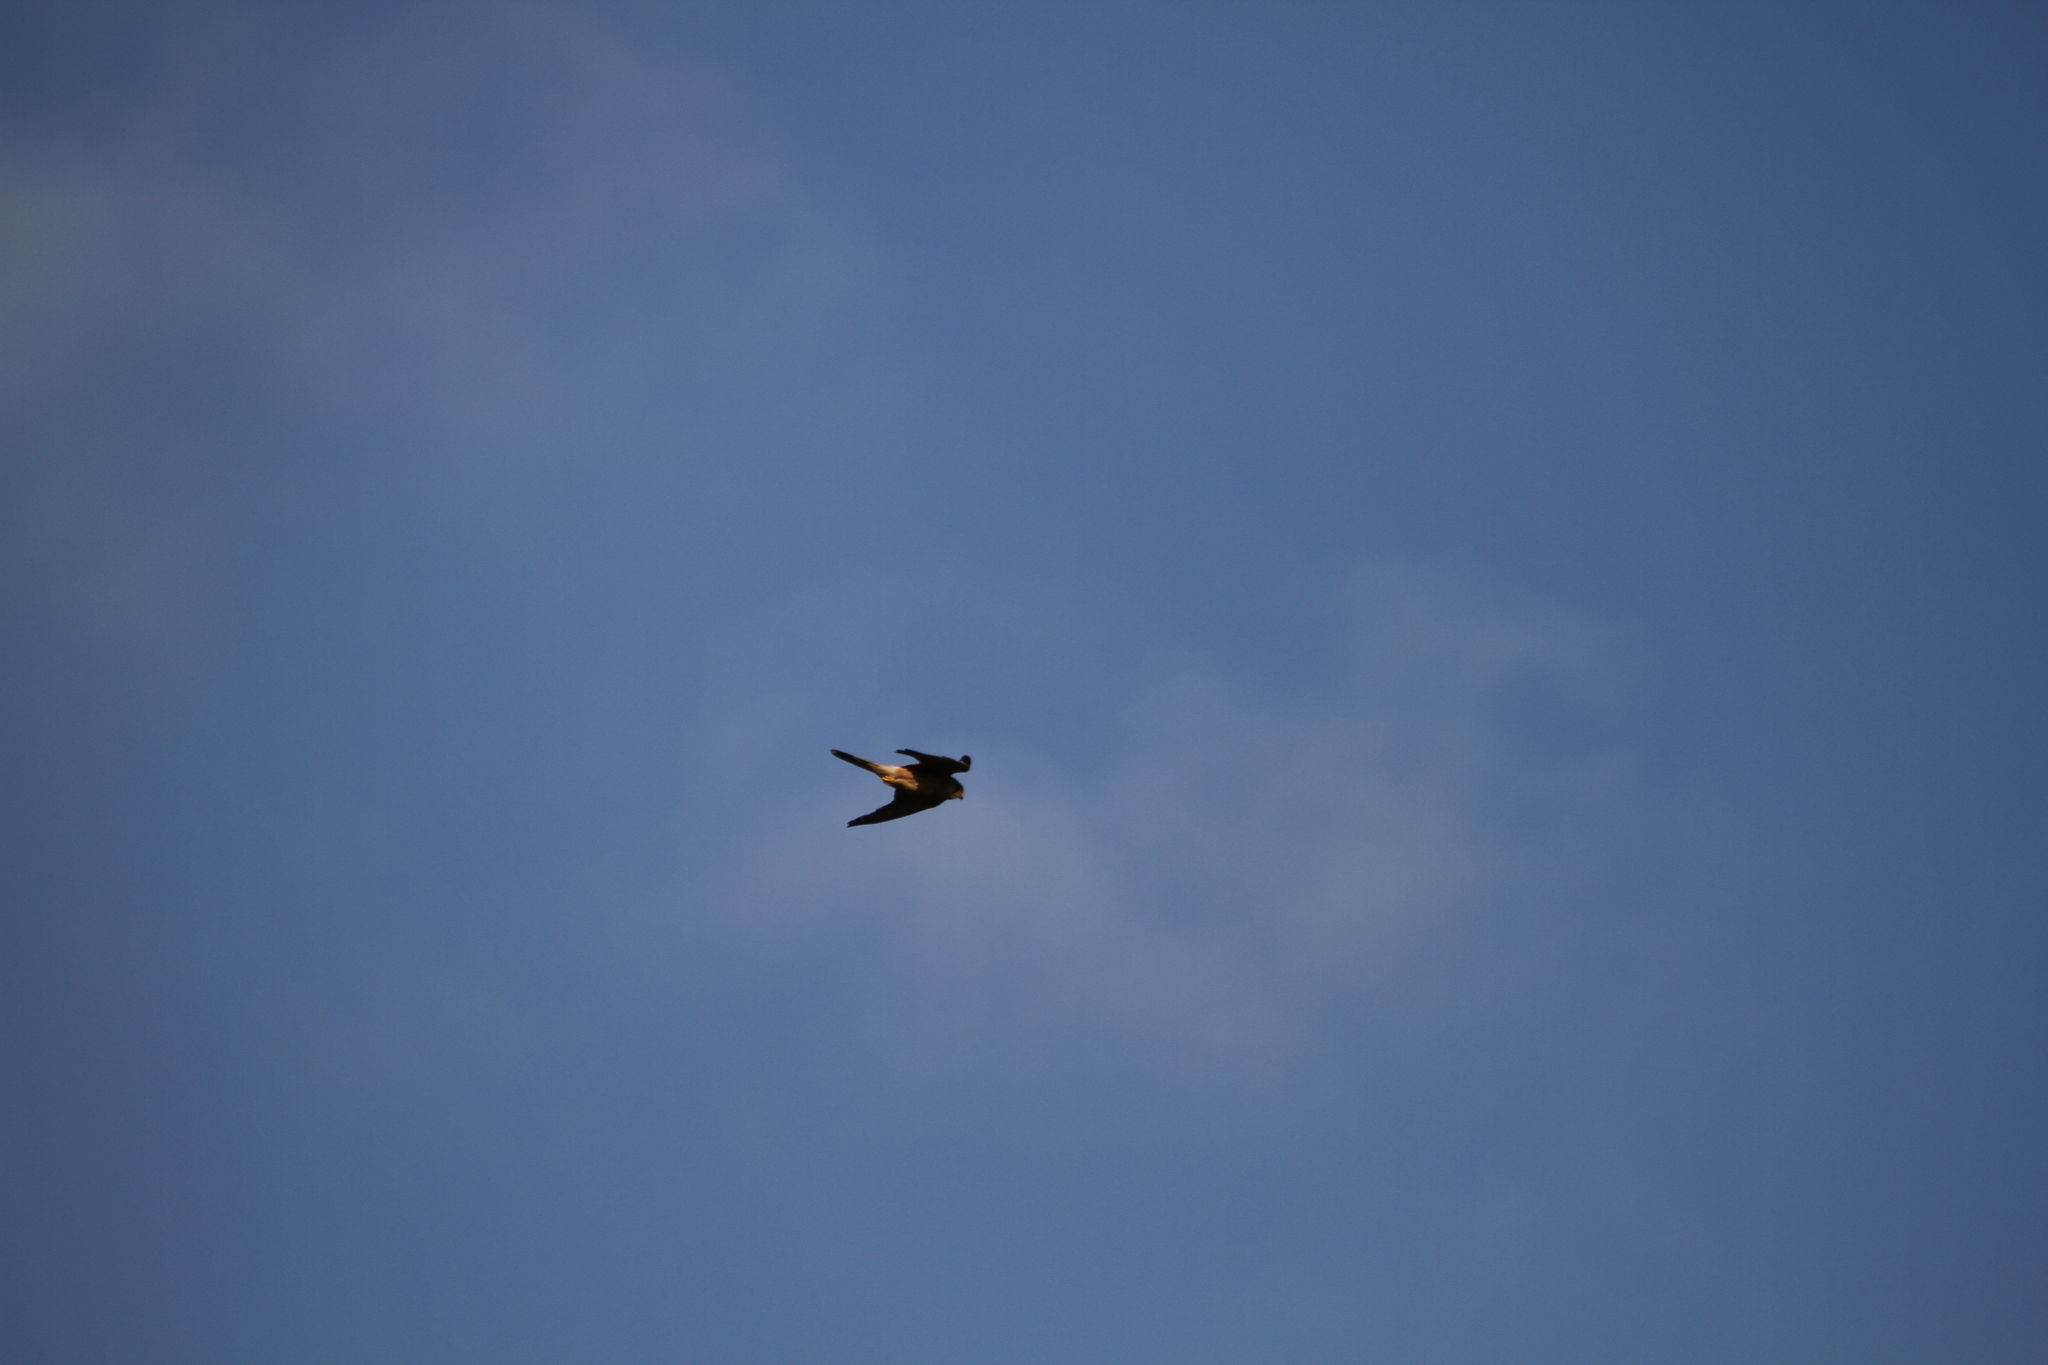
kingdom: Animalia
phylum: Chordata
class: Aves
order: Falconiformes
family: Falconidae
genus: Falco
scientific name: Falco tinnunculus
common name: Common kestrel
